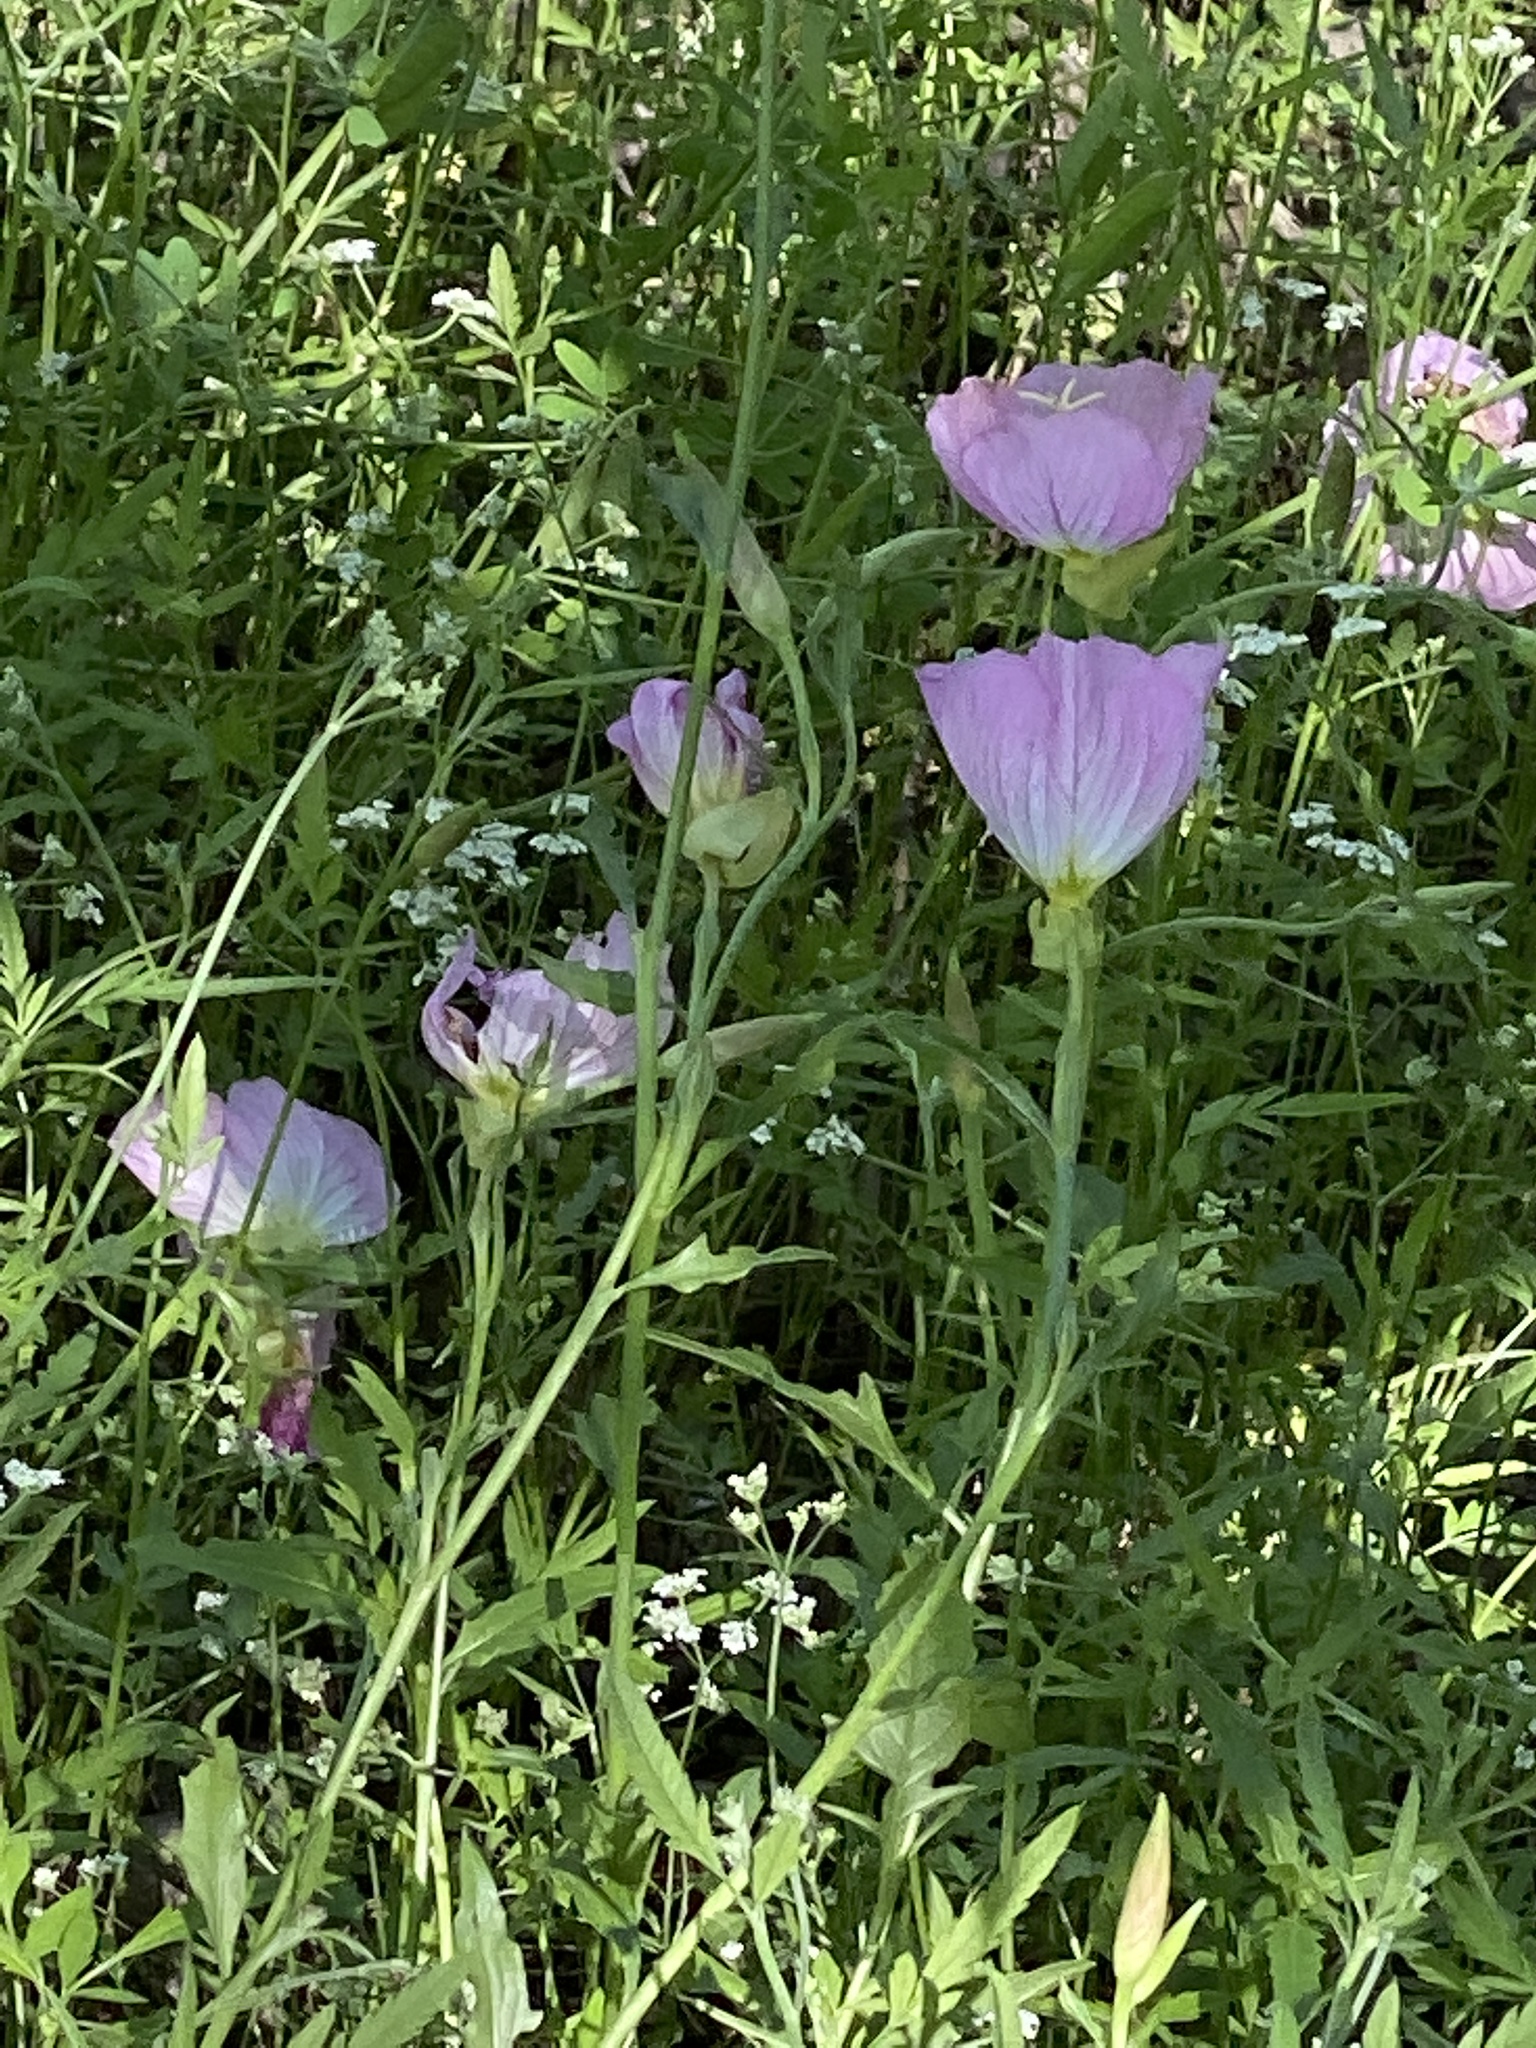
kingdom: Plantae
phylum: Tracheophyta
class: Magnoliopsida
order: Myrtales
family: Onagraceae
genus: Oenothera
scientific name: Oenothera speciosa
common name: White evening-primrose
